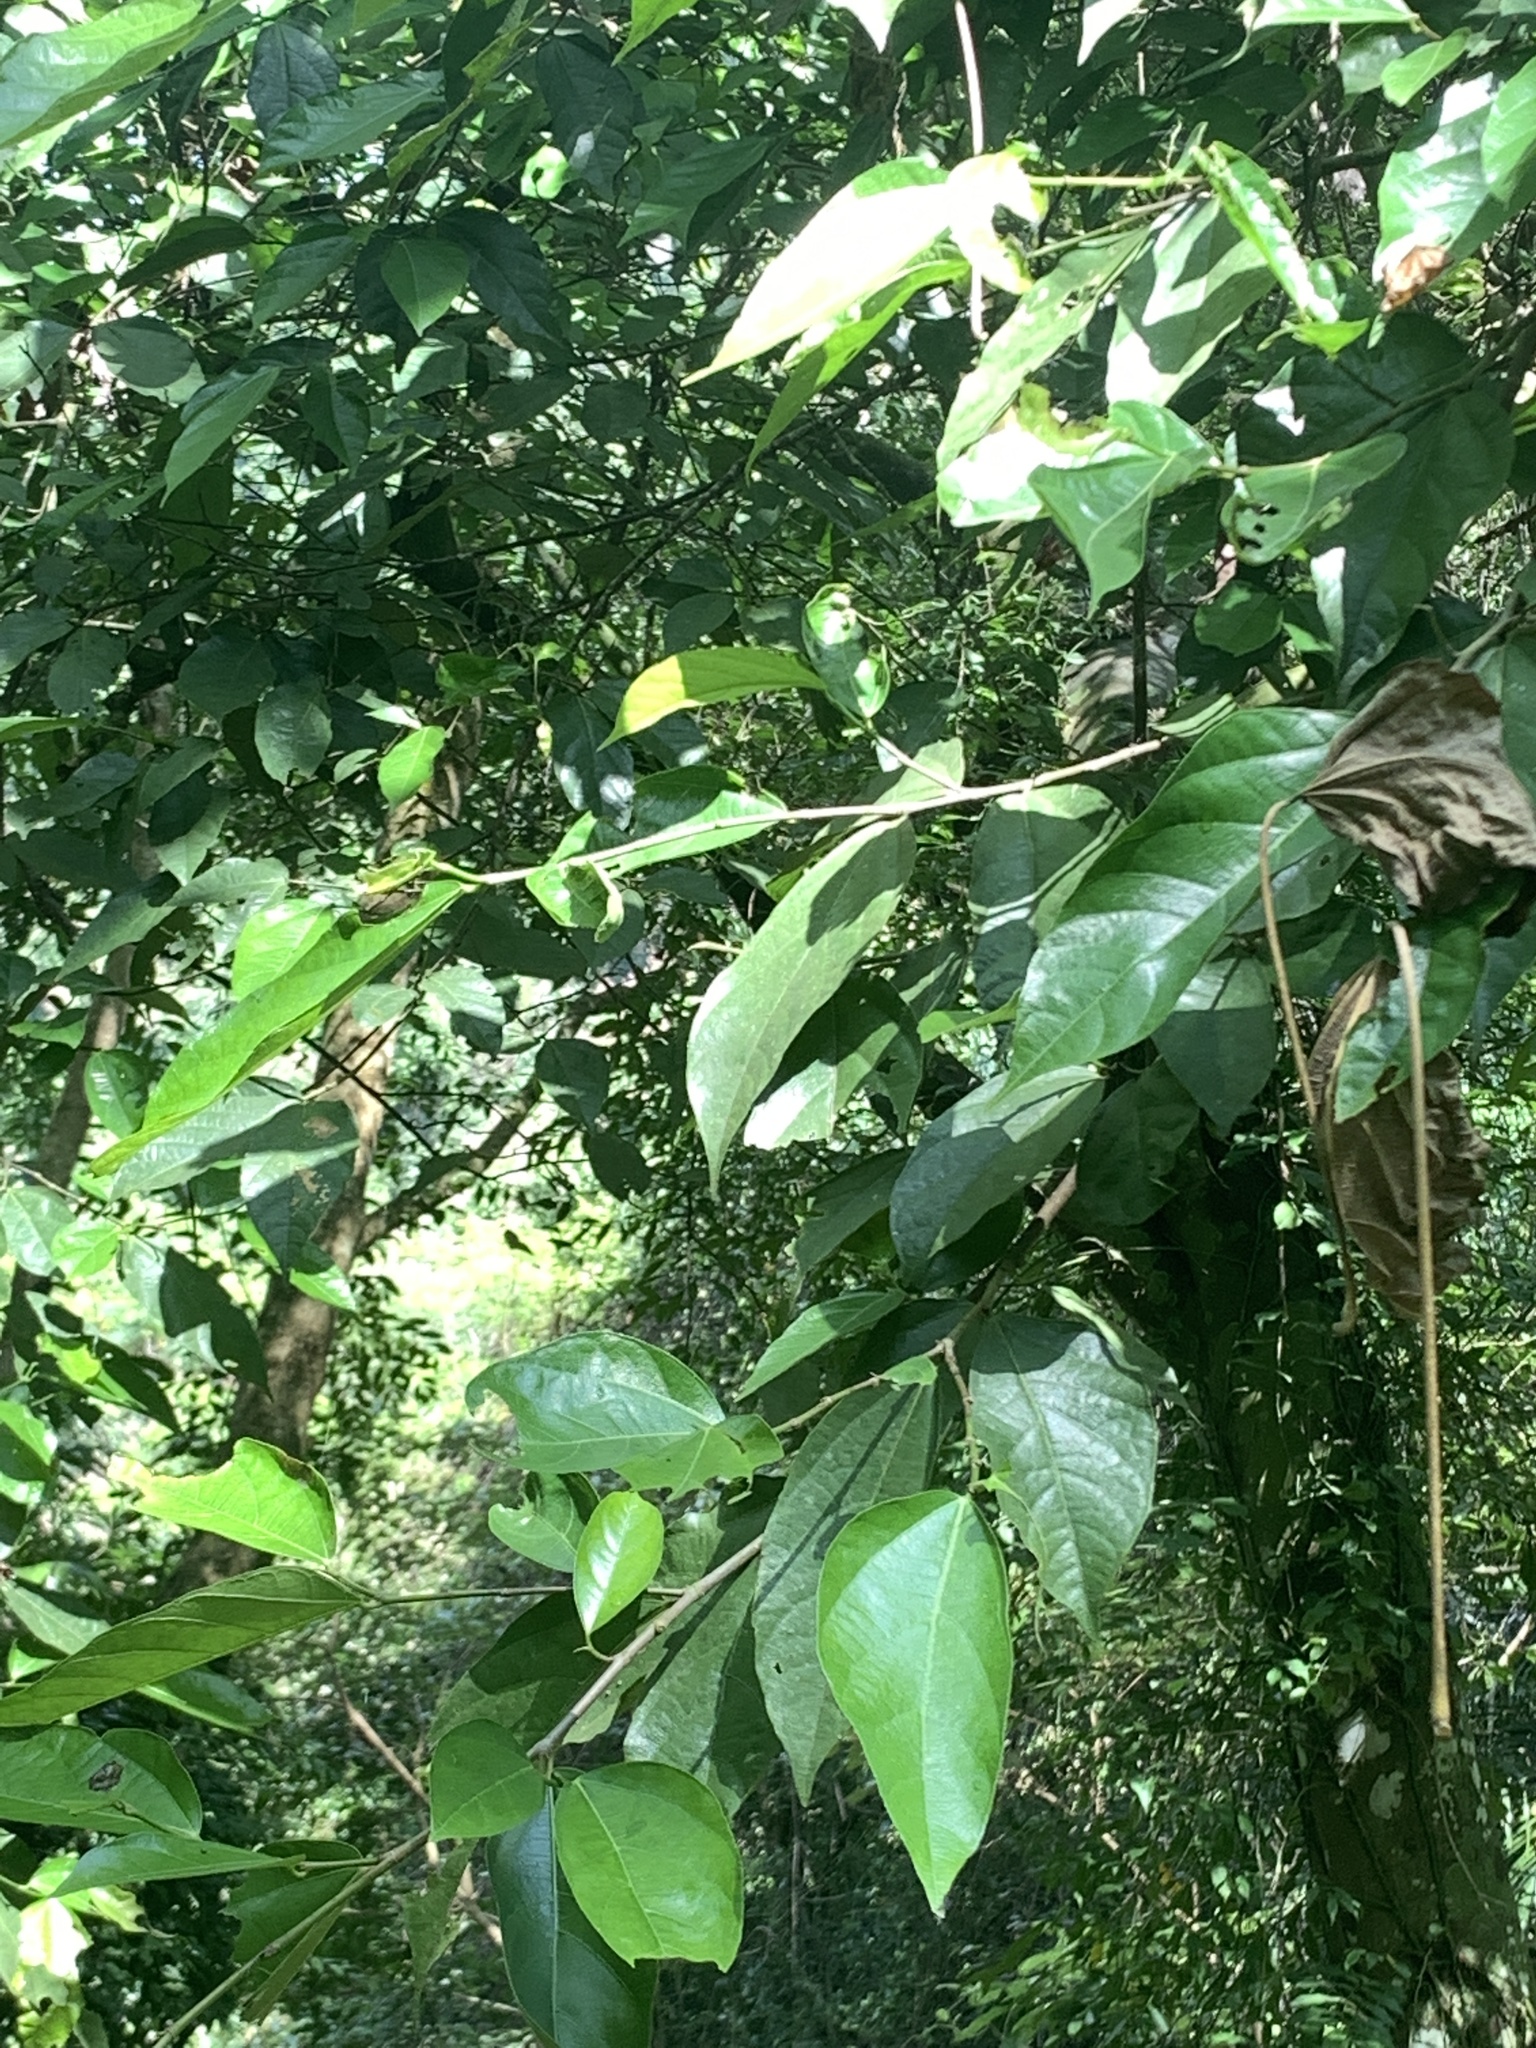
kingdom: Plantae
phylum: Tracheophyta
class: Magnoliopsida
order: Rosales
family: Moraceae
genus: Ficus
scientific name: Ficus ampelos
